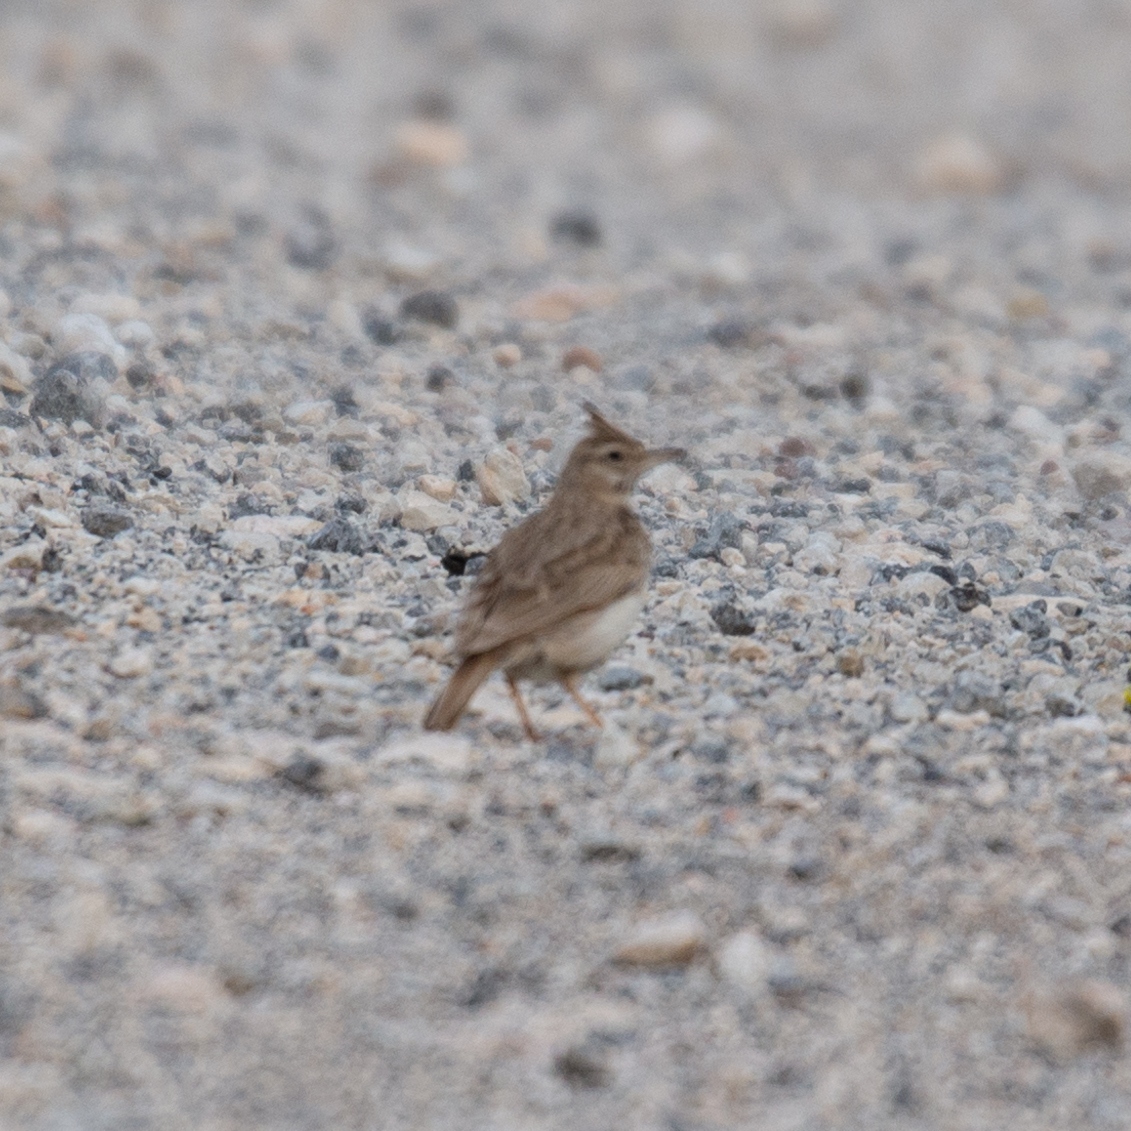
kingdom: Animalia
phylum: Chordata
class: Aves
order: Passeriformes
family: Alaudidae
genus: Galerida
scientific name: Galerida cristata
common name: Crested lark
